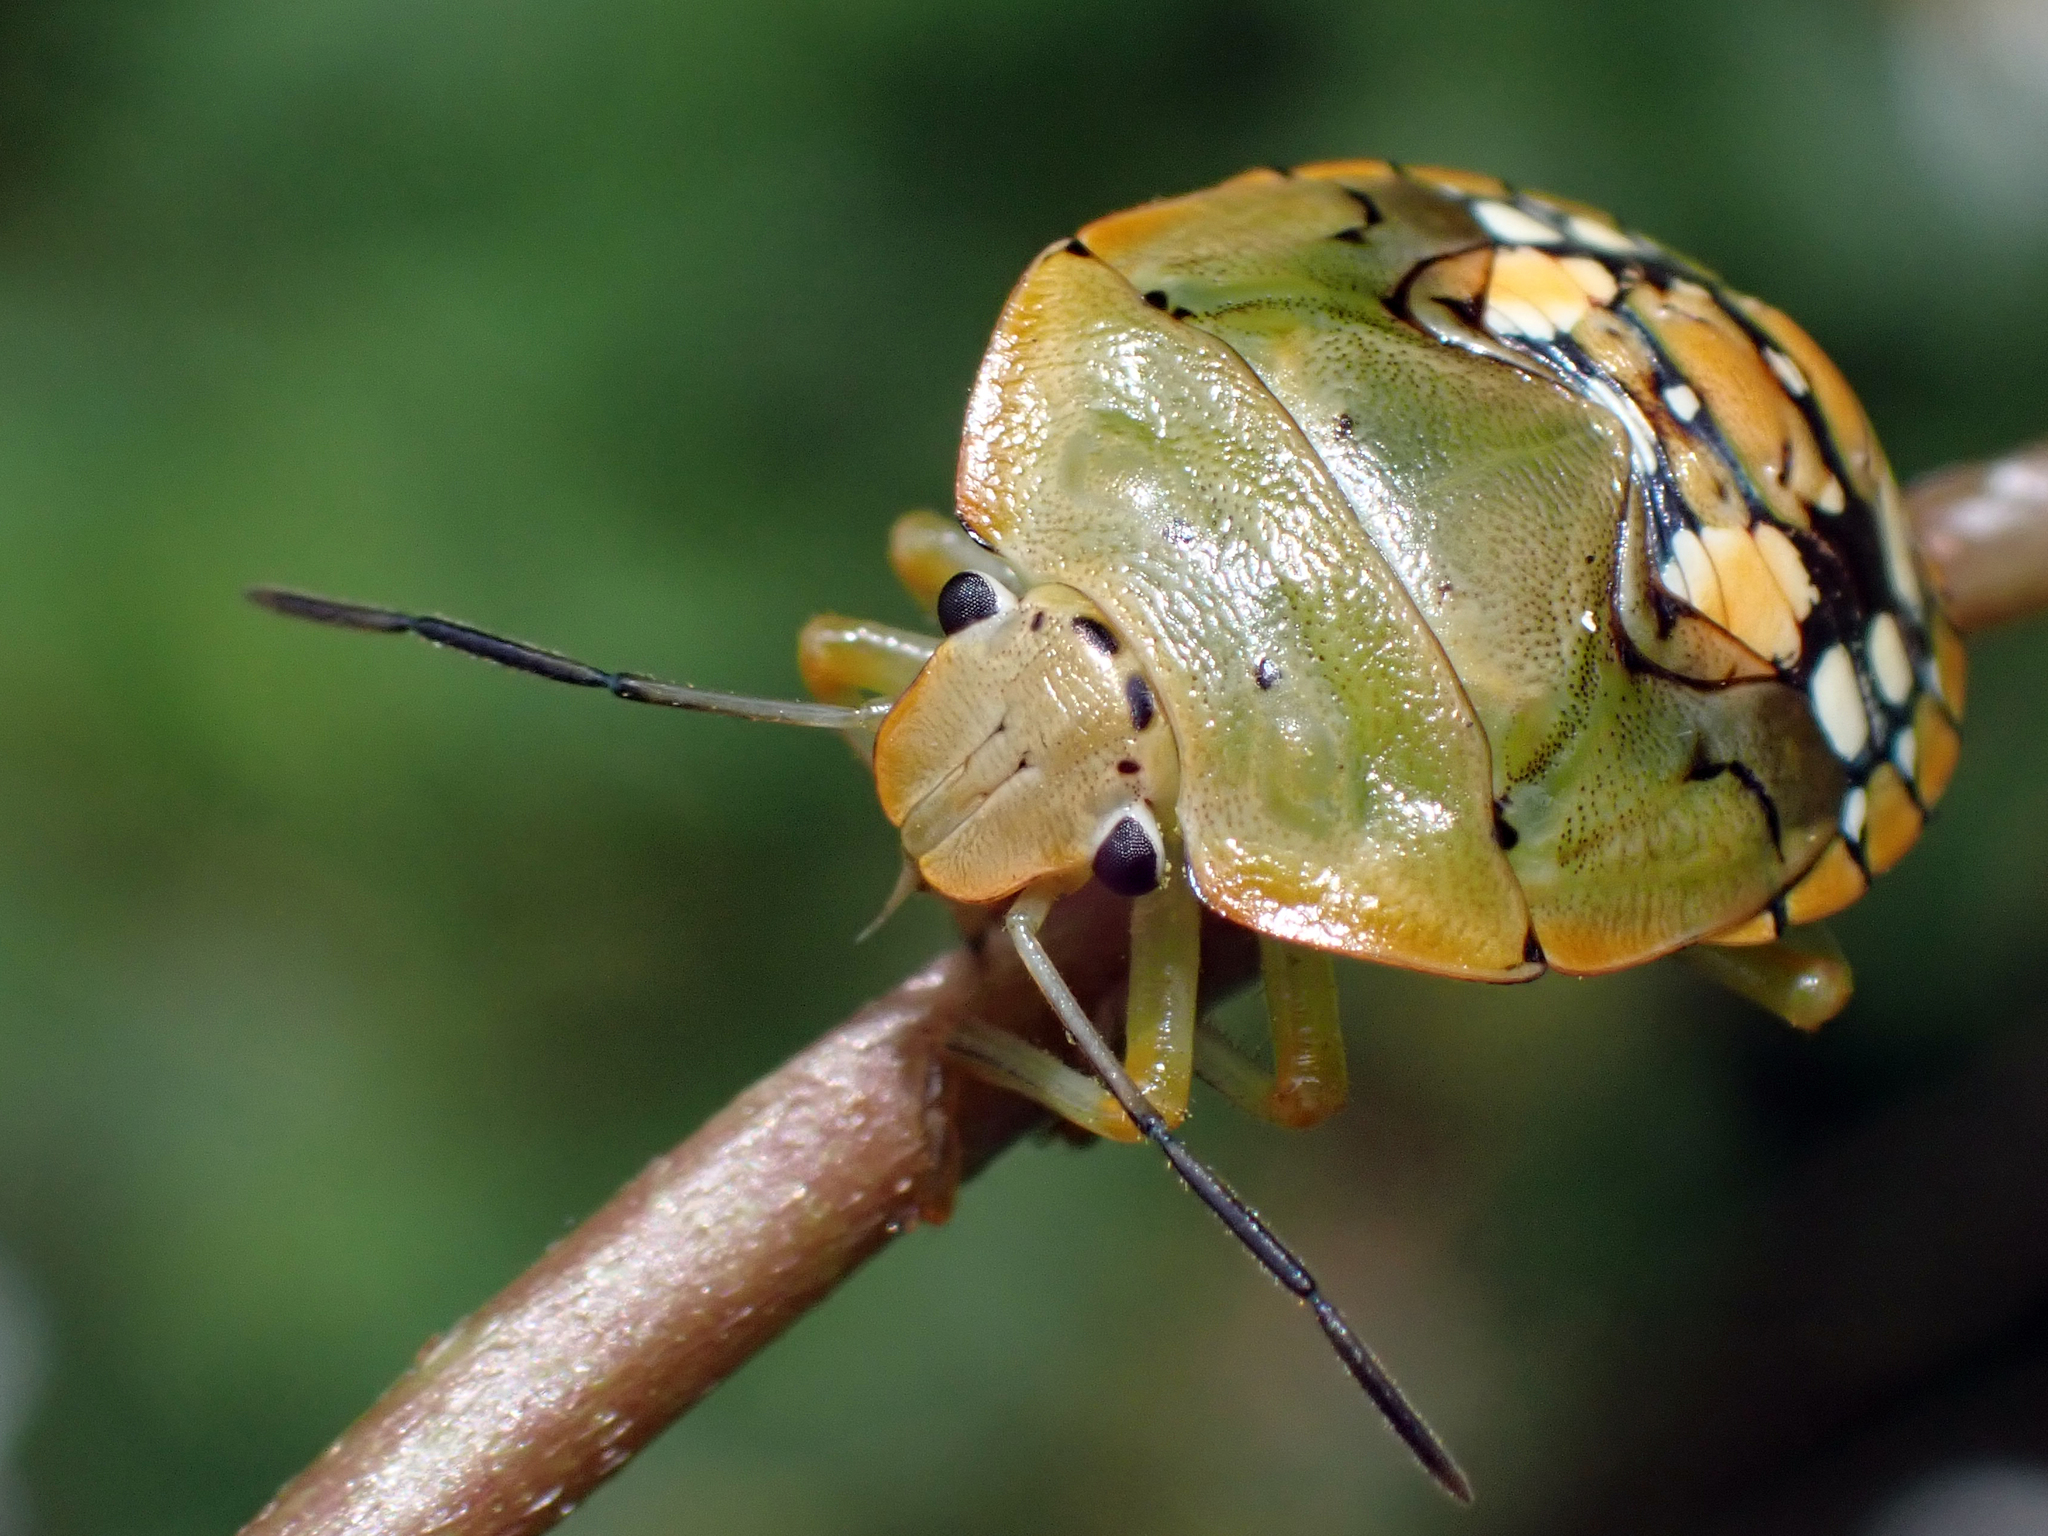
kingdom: Animalia
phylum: Arthropoda
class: Insecta
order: Hemiptera
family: Pentatomidae
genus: Acrosternum
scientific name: Acrosternum marginatum
